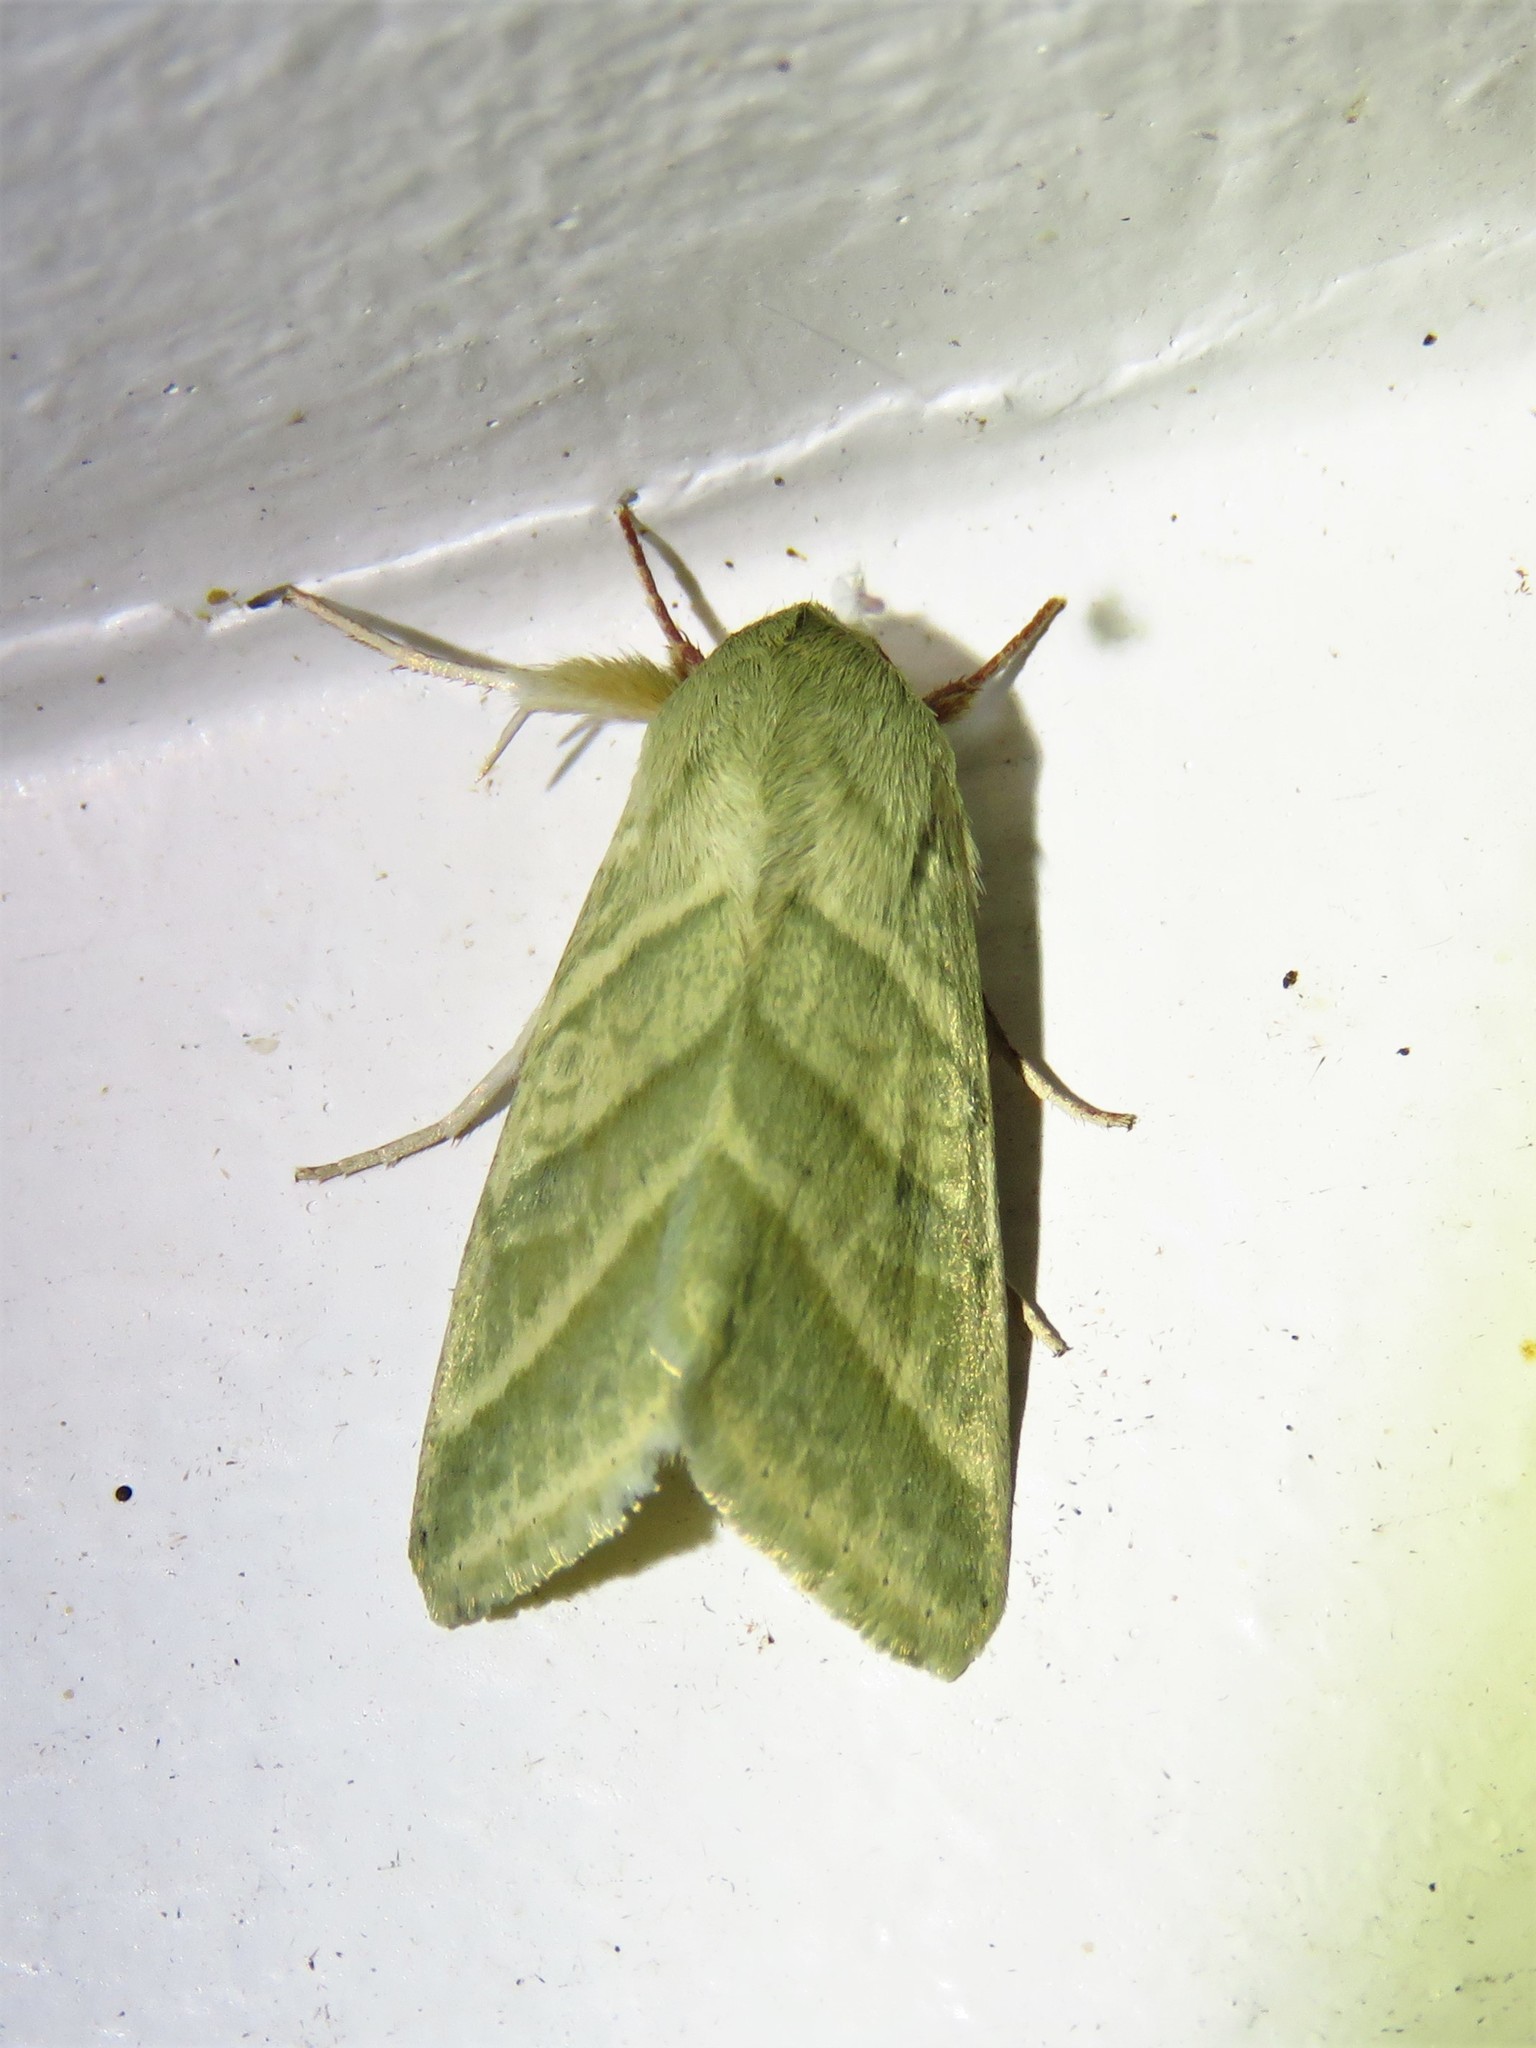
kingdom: Animalia
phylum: Arthropoda
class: Insecta
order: Lepidoptera
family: Noctuidae
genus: Chloridea
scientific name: Chloridea virescens
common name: Tobacco budworm
